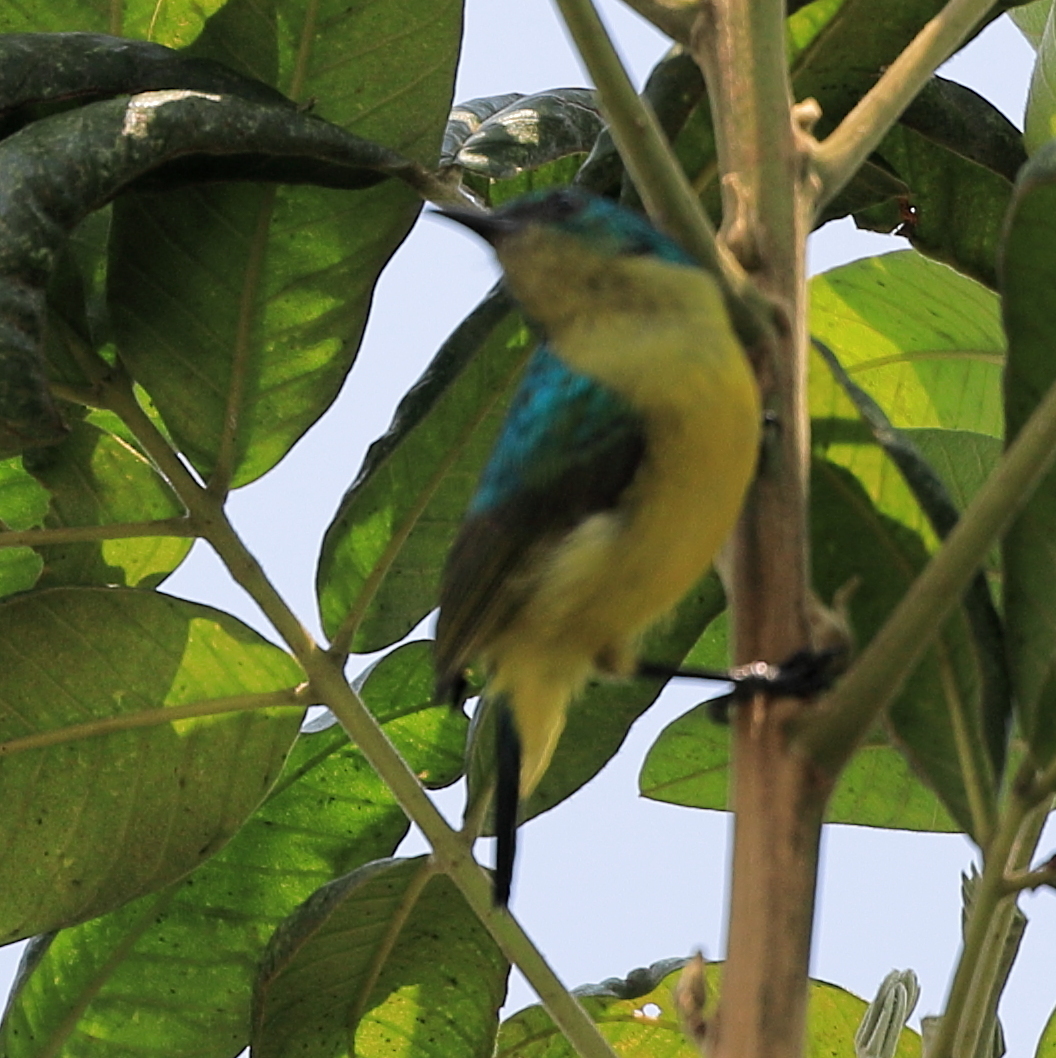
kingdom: Animalia
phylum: Chordata
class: Aves
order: Passeriformes
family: Nectariniidae
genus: Hedydipna
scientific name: Hedydipna collaris
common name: Collared sunbird
